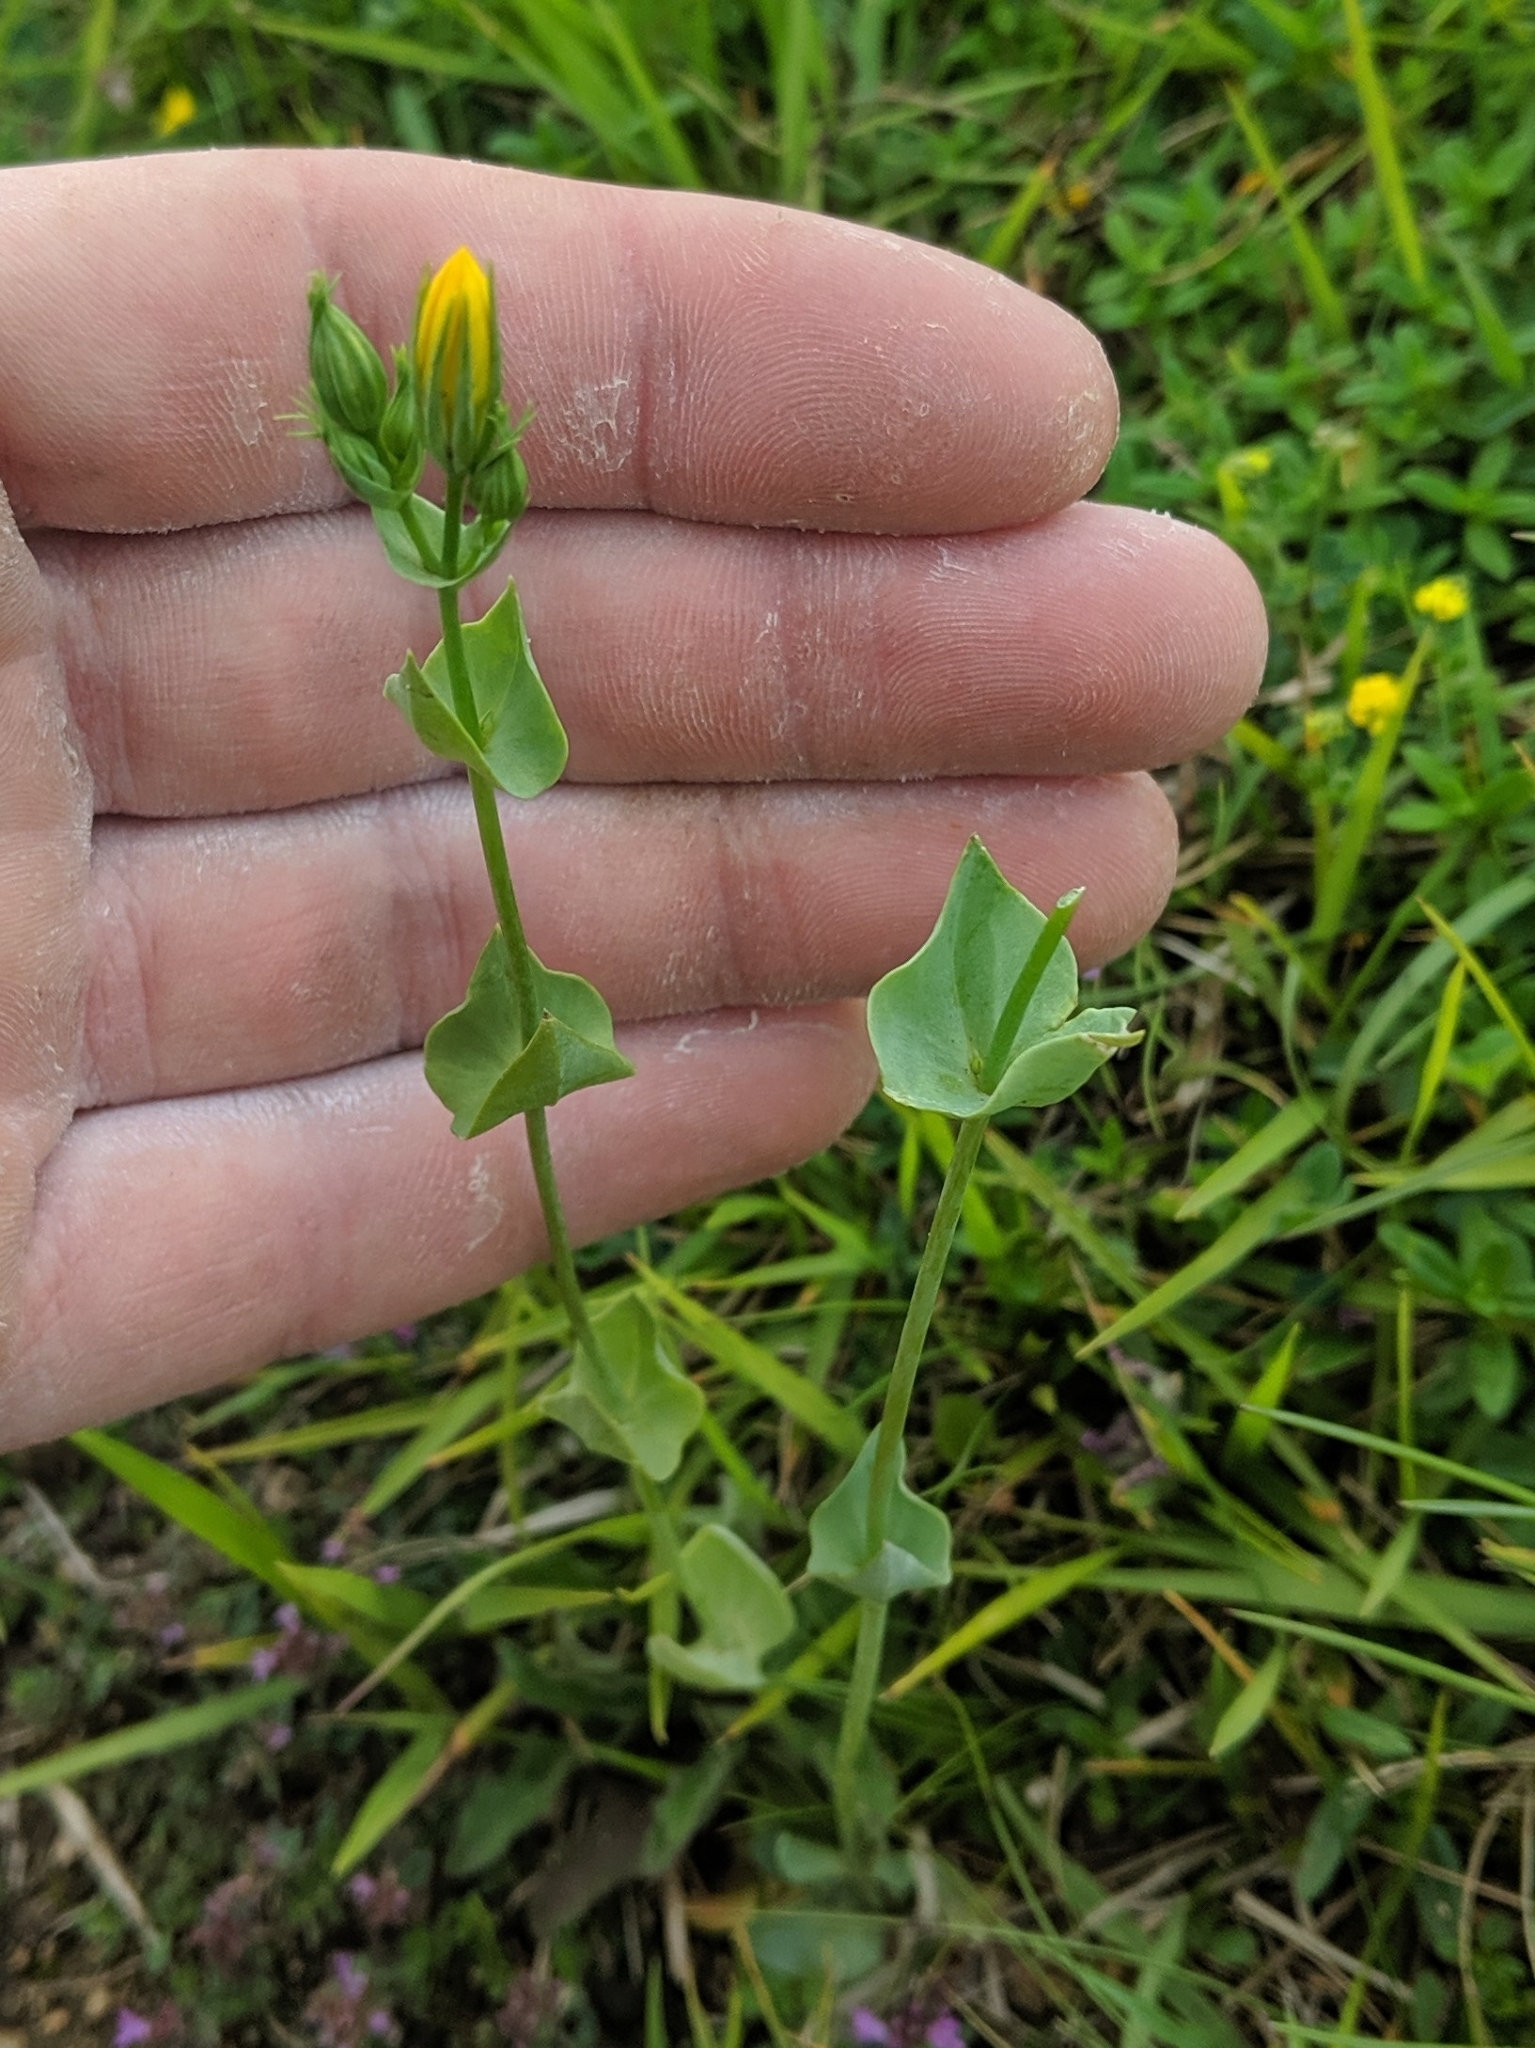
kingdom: Plantae
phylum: Tracheophyta
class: Magnoliopsida
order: Gentianales
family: Gentianaceae
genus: Blackstonia
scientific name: Blackstonia perfoliata
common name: Yellow-wort
